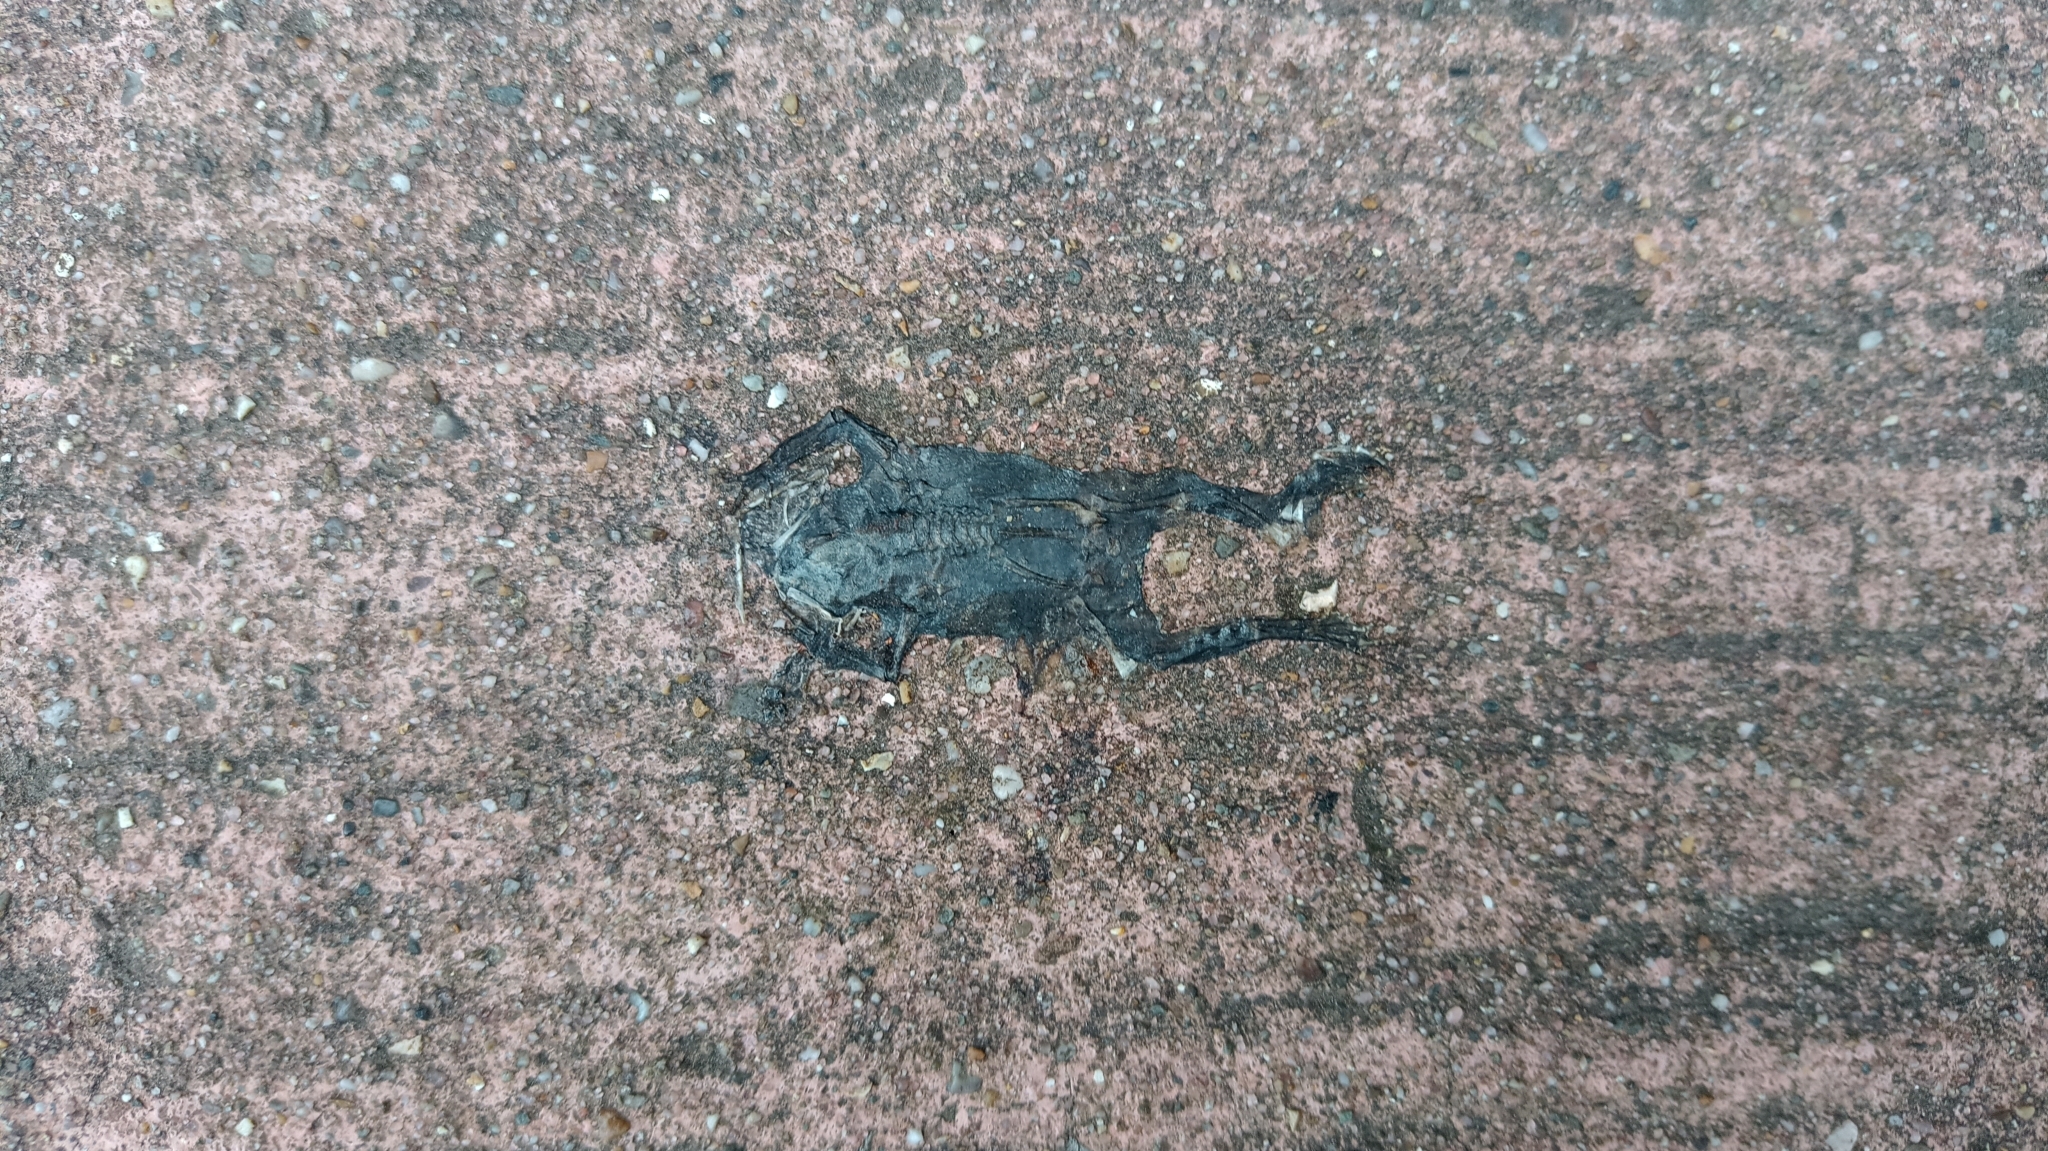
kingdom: Animalia
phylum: Chordata
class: Amphibia
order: Anura
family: Bufonidae
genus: Bufo
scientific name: Bufo bufo
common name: Common toad
